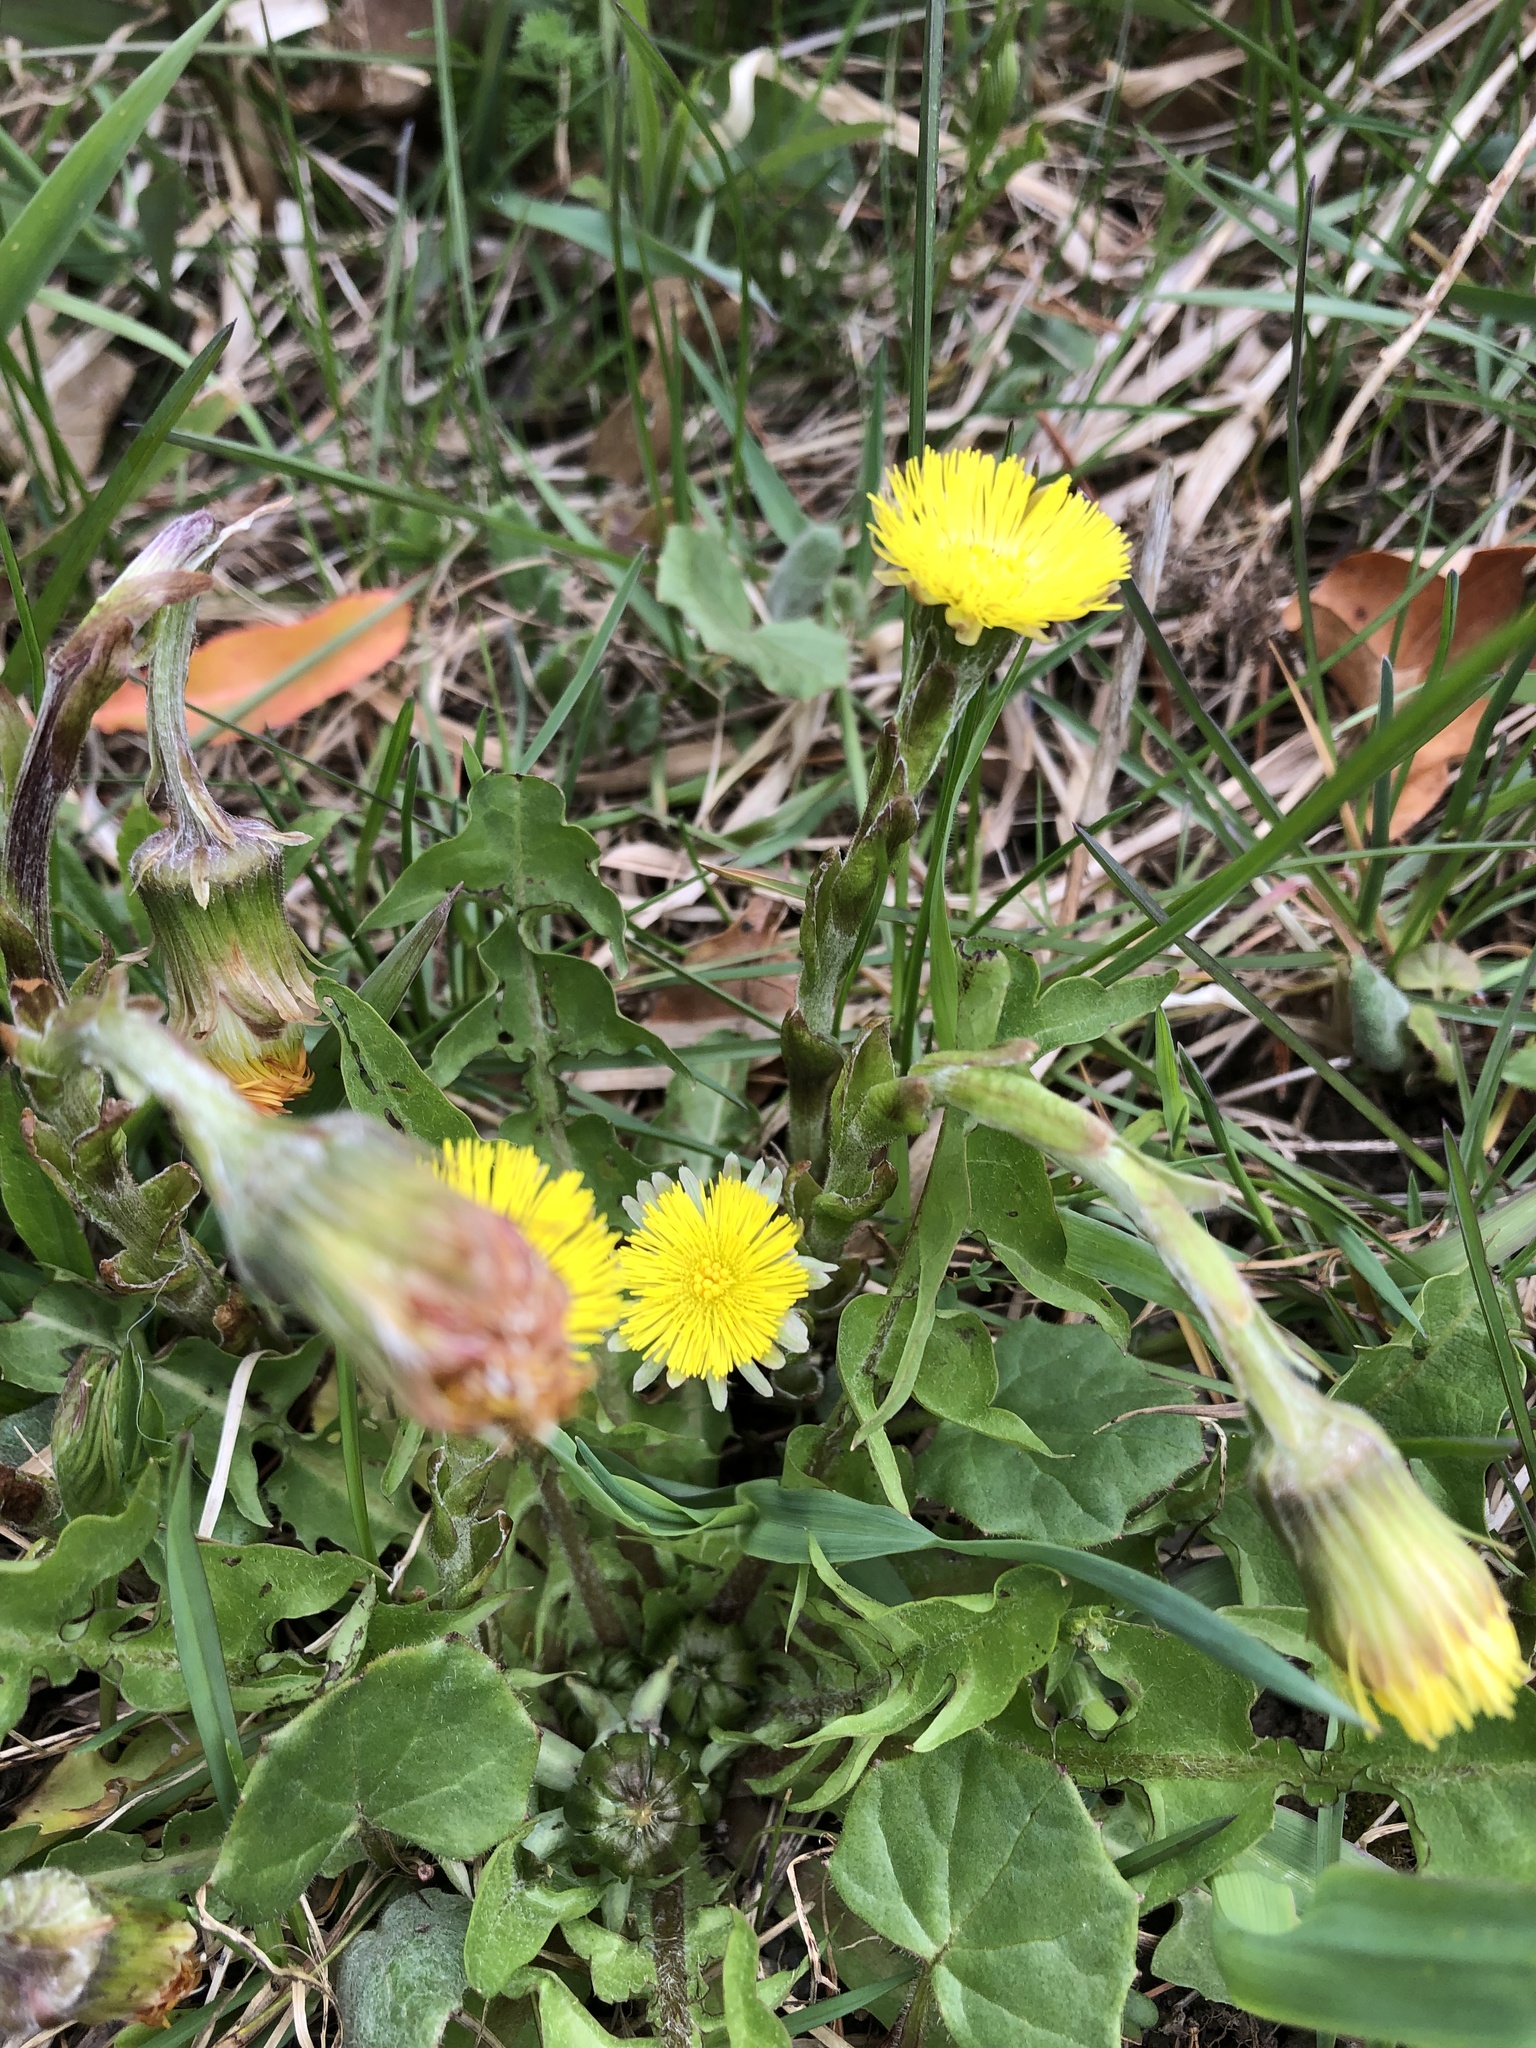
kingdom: Plantae
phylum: Tracheophyta
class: Magnoliopsida
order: Asterales
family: Asteraceae
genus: Tussilago
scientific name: Tussilago farfara
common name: Coltsfoot
